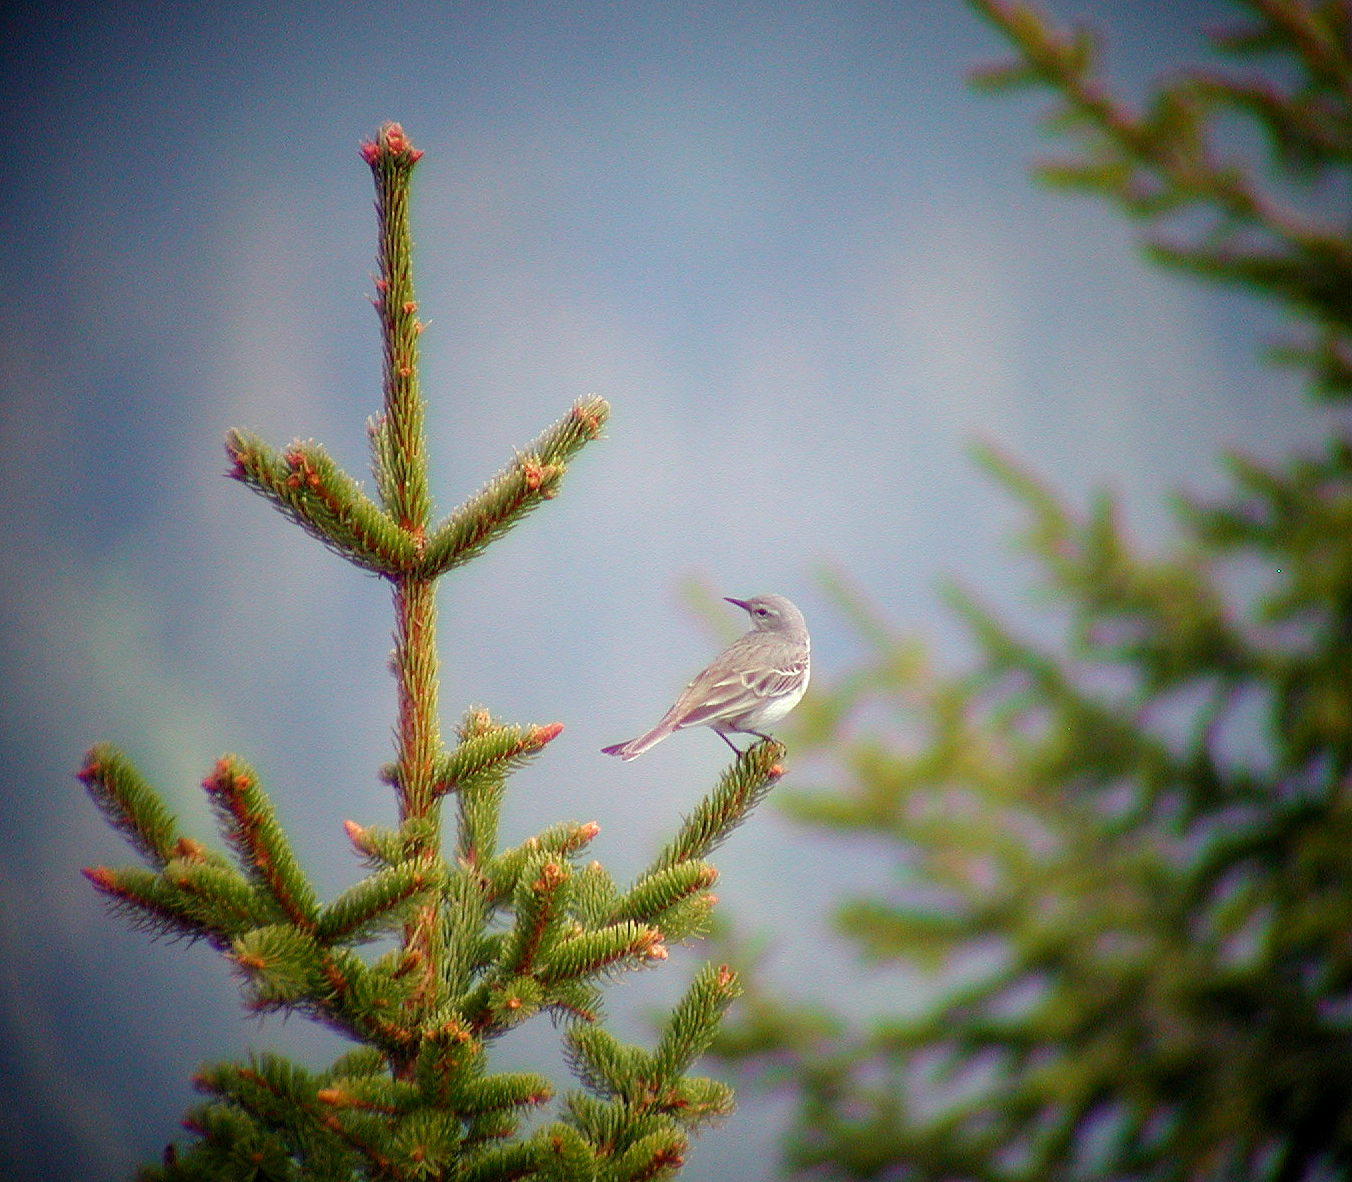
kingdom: Animalia
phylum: Chordata
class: Aves
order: Passeriformes
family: Motacillidae
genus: Anthus
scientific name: Anthus spinoletta
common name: Water pipit
